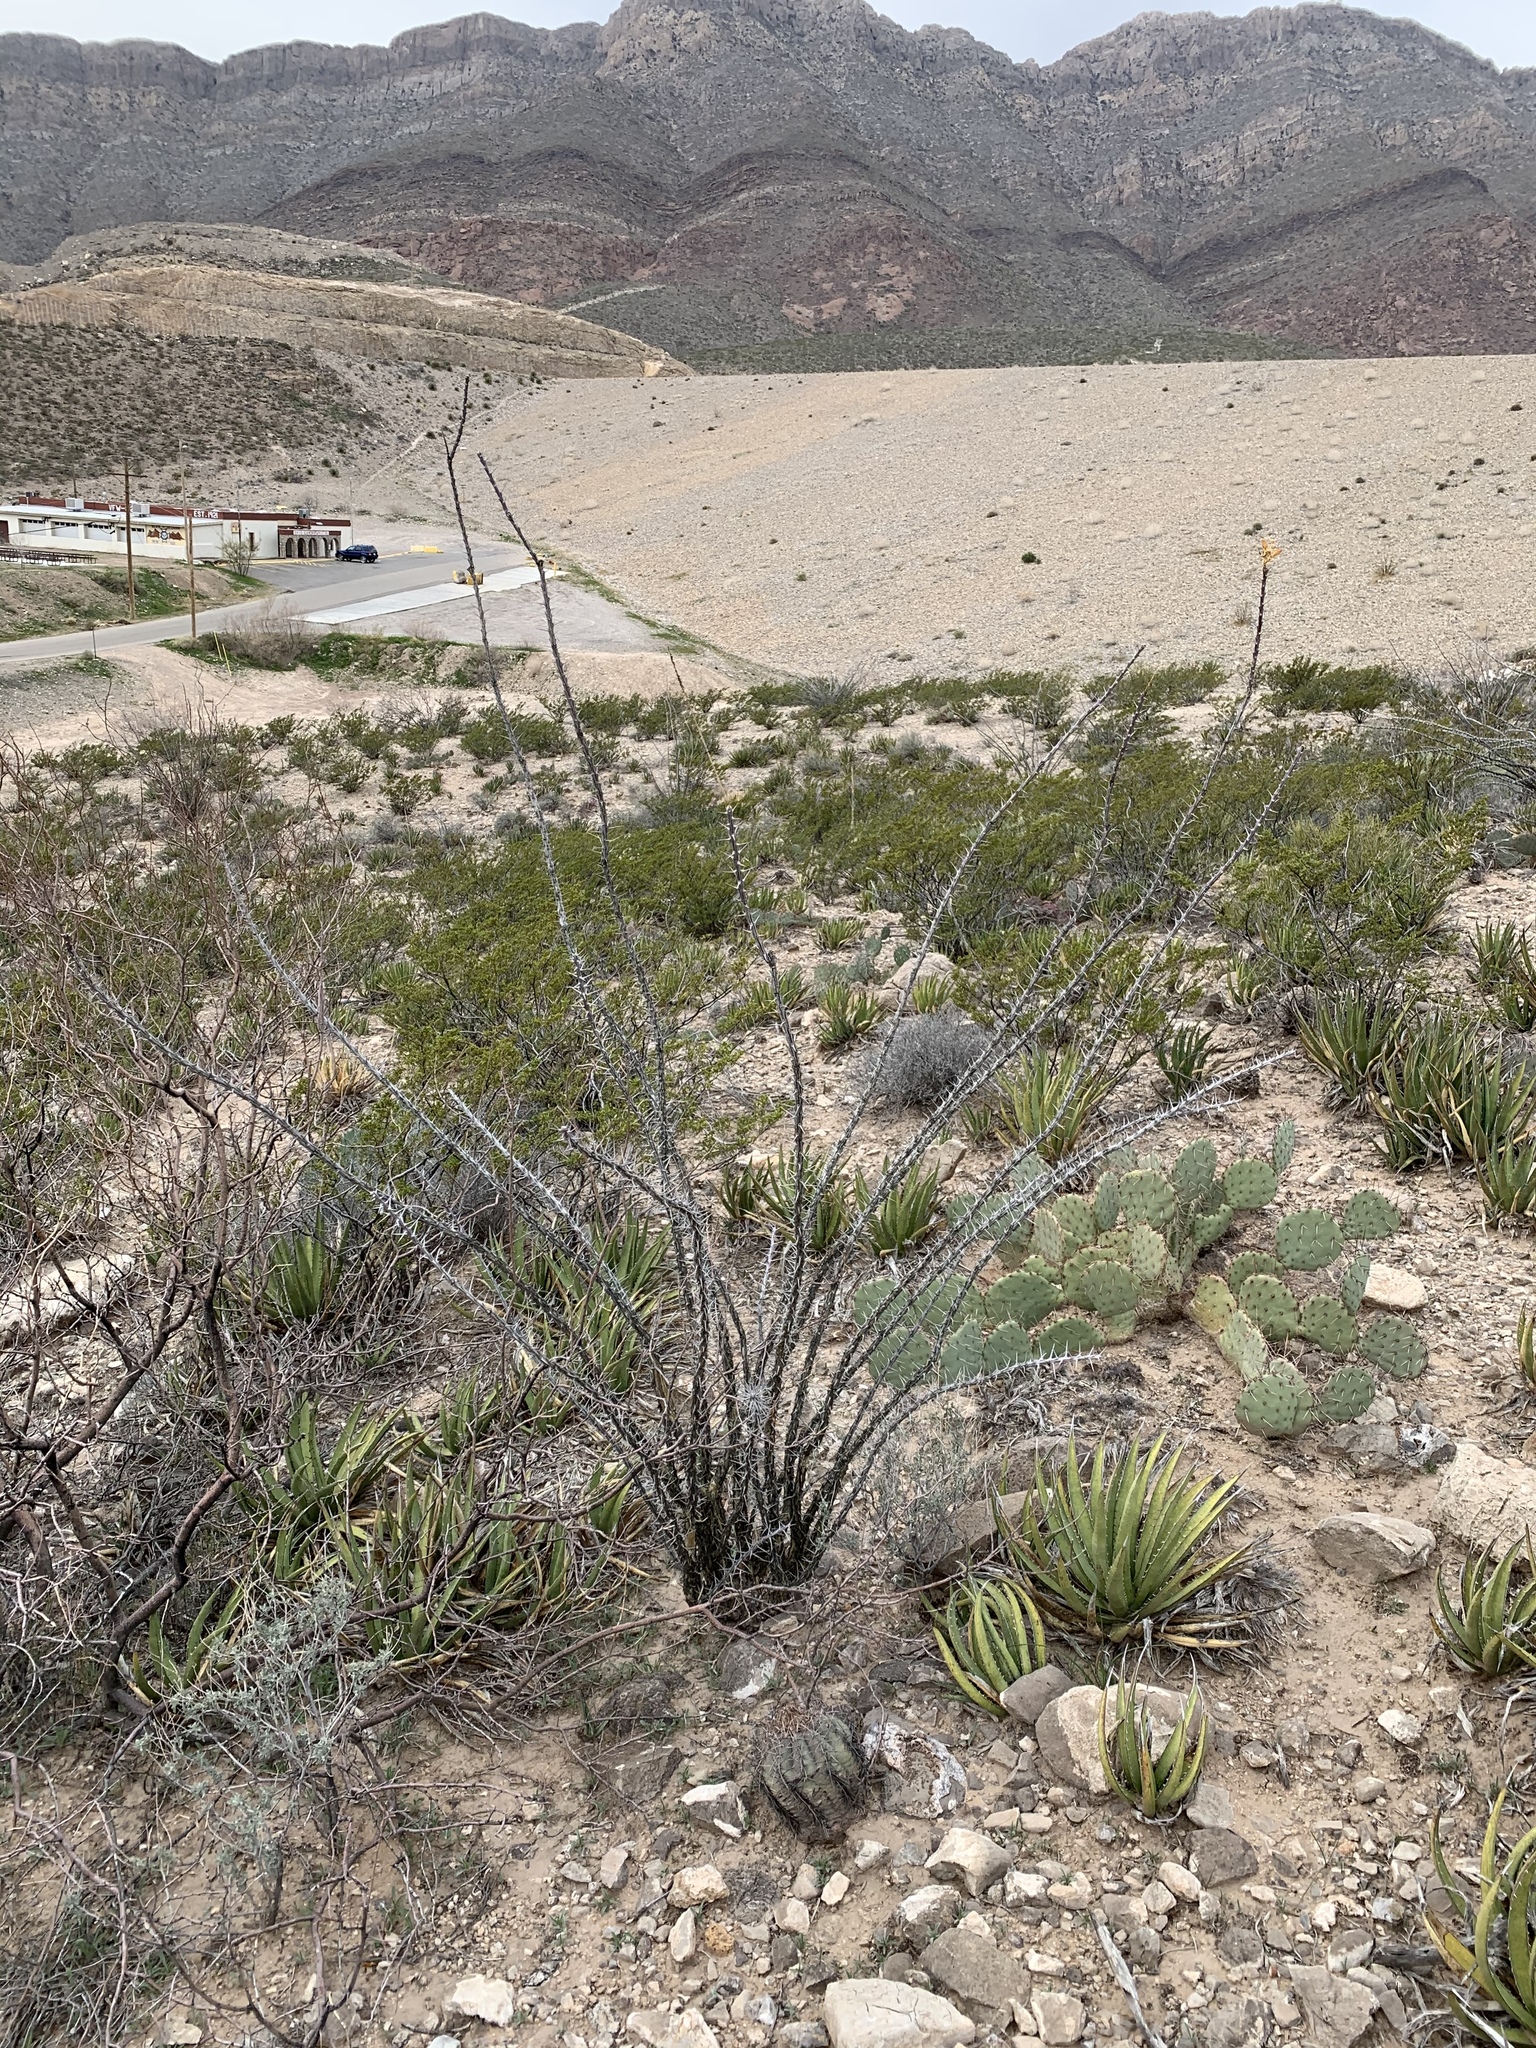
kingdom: Plantae
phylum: Tracheophyta
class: Magnoliopsida
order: Ericales
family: Fouquieriaceae
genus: Fouquieria
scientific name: Fouquieria splendens
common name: Vine-cactus
